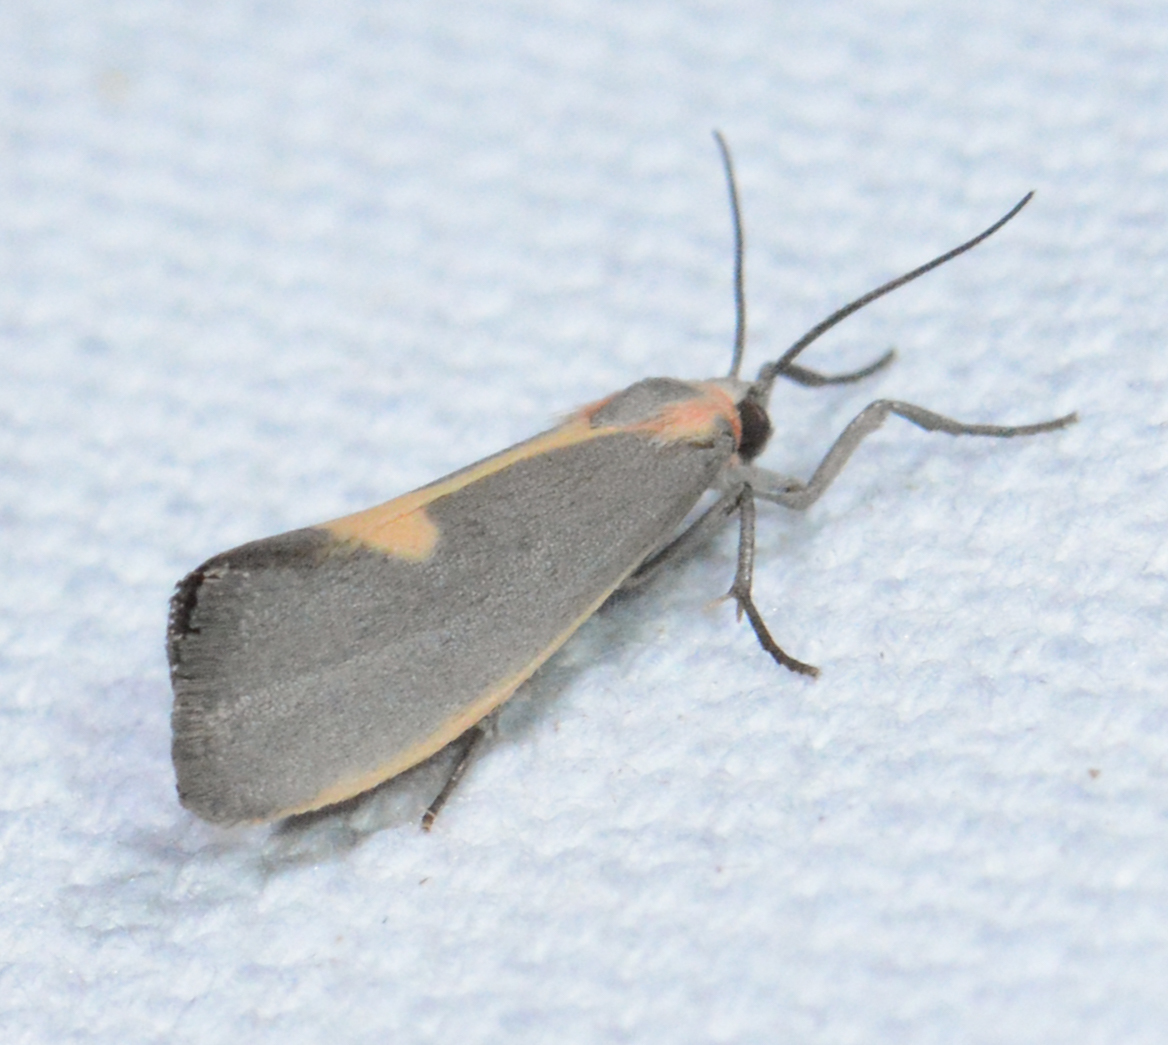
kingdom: Animalia
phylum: Arthropoda
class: Insecta
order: Lepidoptera
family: Erebidae
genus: Cisthene
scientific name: Cisthene plumbea
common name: Lead colored lichen moth
